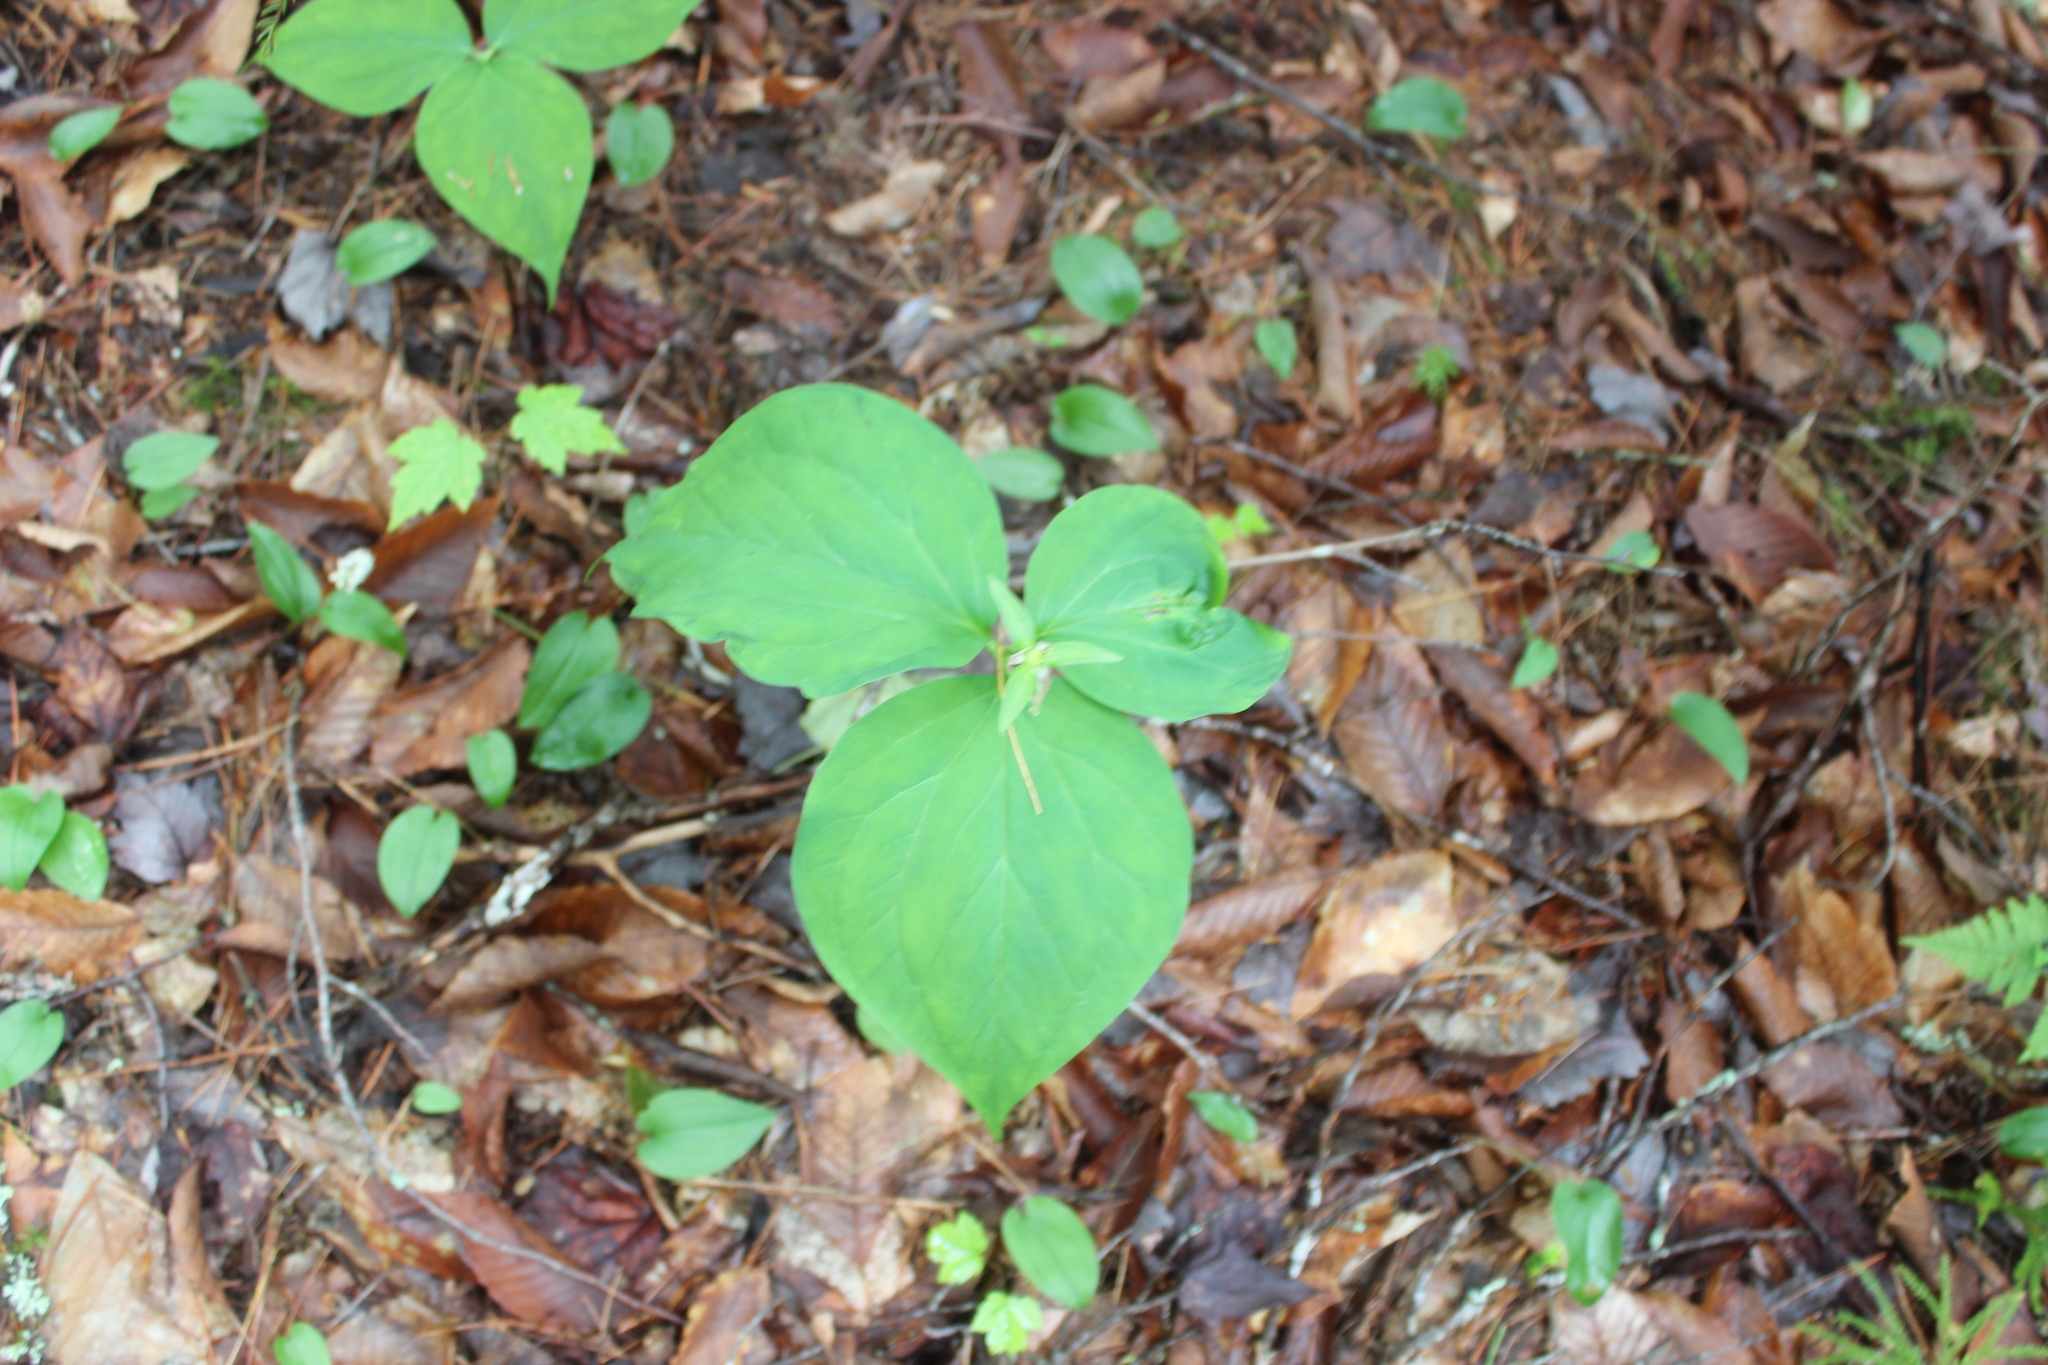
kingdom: Plantae
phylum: Tracheophyta
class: Liliopsida
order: Liliales
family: Melanthiaceae
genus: Trillium
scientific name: Trillium undulatum
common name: Paint trillium
